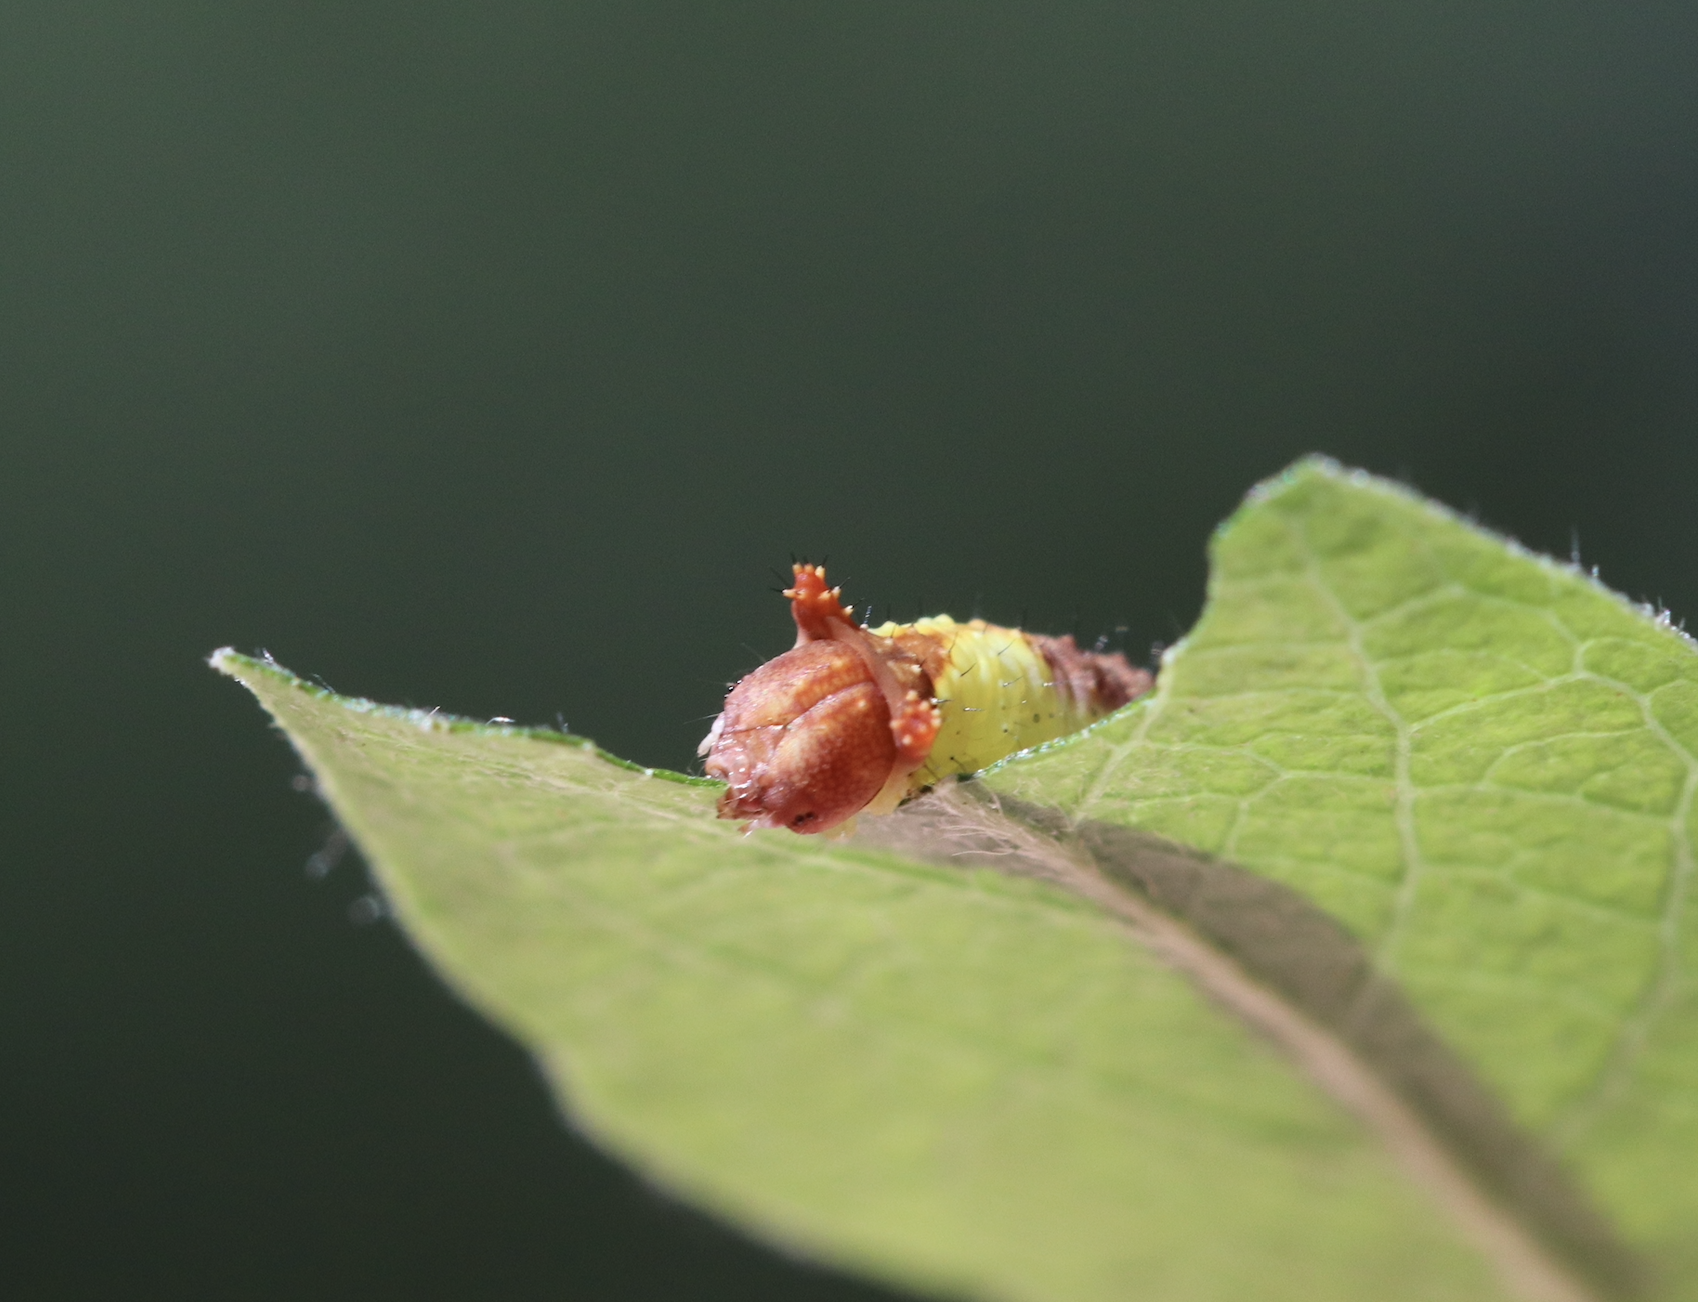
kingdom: Animalia
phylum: Arthropoda
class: Insecta
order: Lepidoptera
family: Notodontidae
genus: Furcula
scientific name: Furcula occidentalis
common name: Western furcula moth
